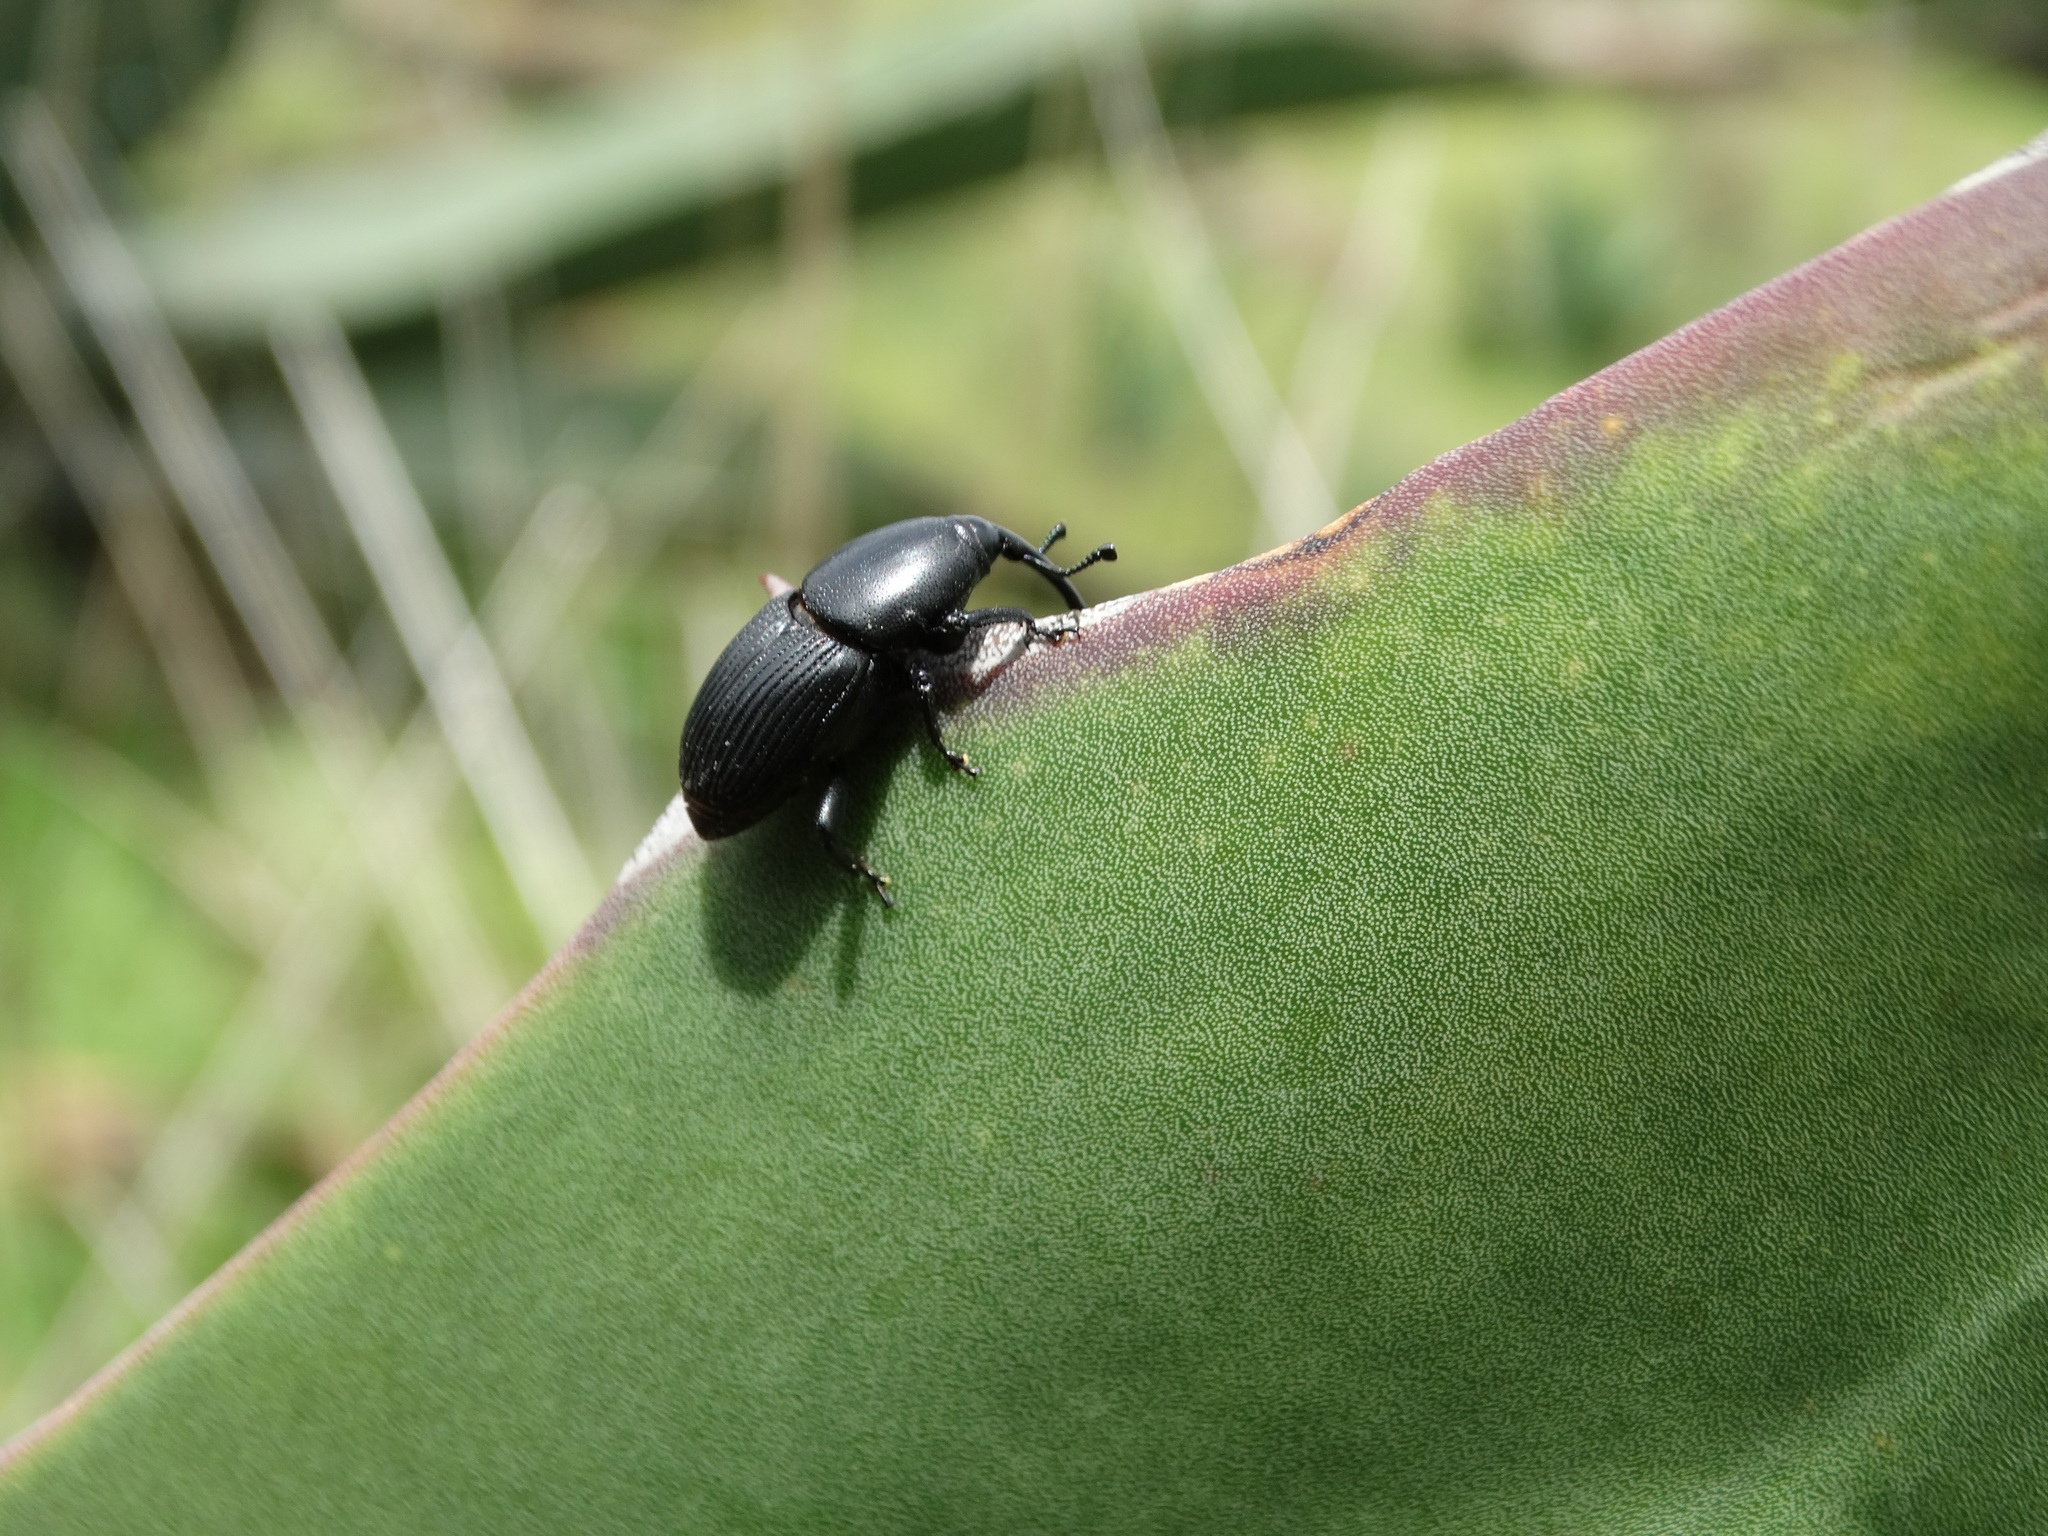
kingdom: Animalia
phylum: Arthropoda
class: Insecta
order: Coleoptera
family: Dryophthoridae
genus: Scyphophorus
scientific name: Scyphophorus acupunctatus
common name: Weevil
